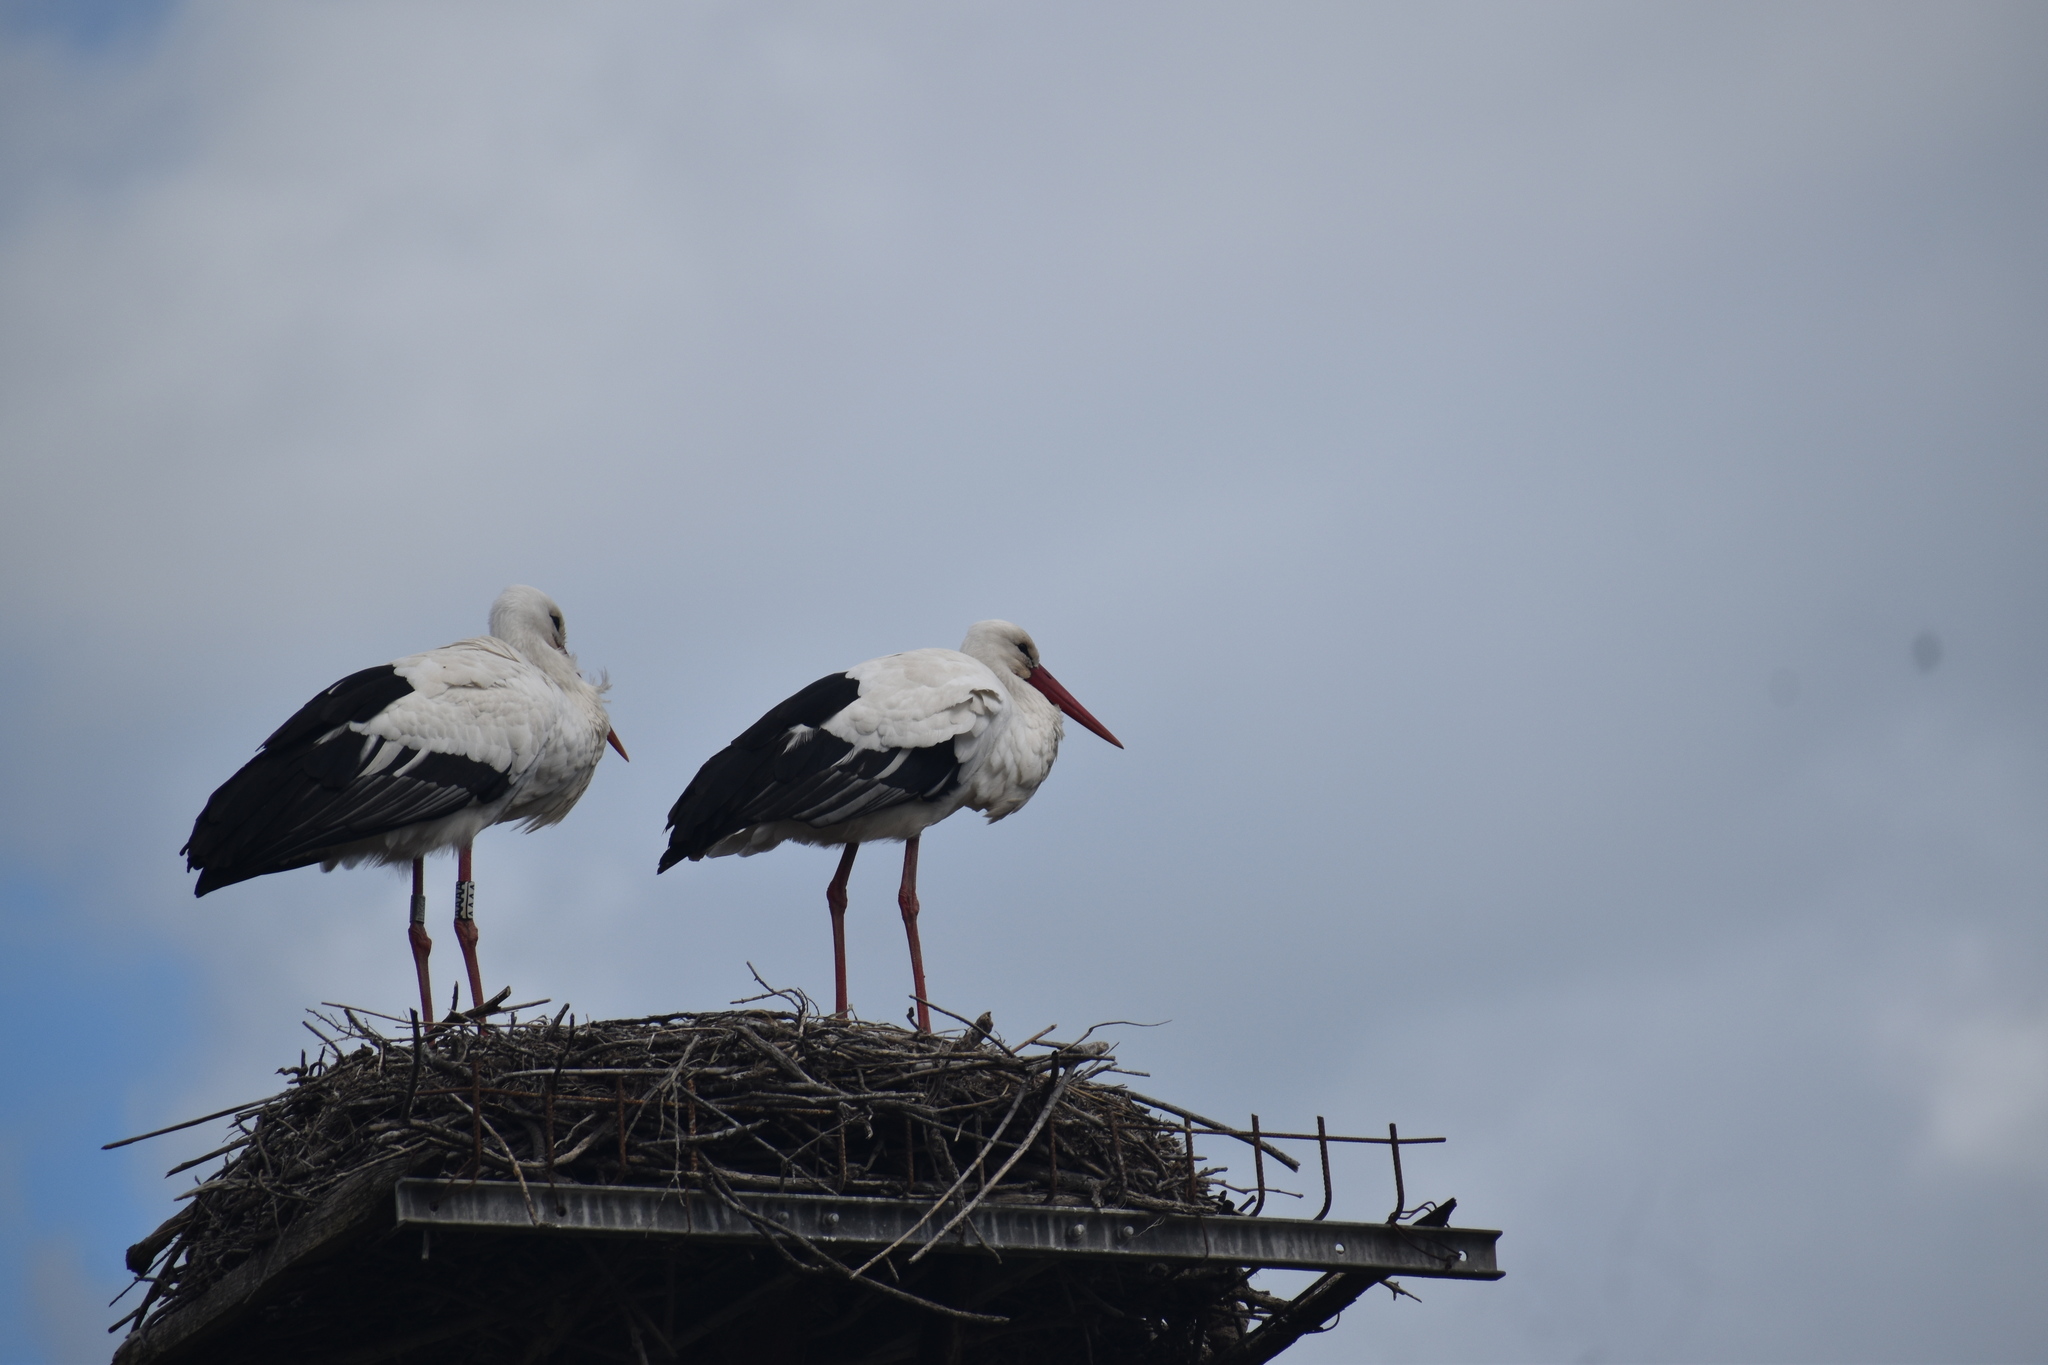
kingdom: Animalia
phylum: Chordata
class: Aves
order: Ciconiiformes
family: Ciconiidae
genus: Ciconia
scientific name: Ciconia ciconia
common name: White stork
